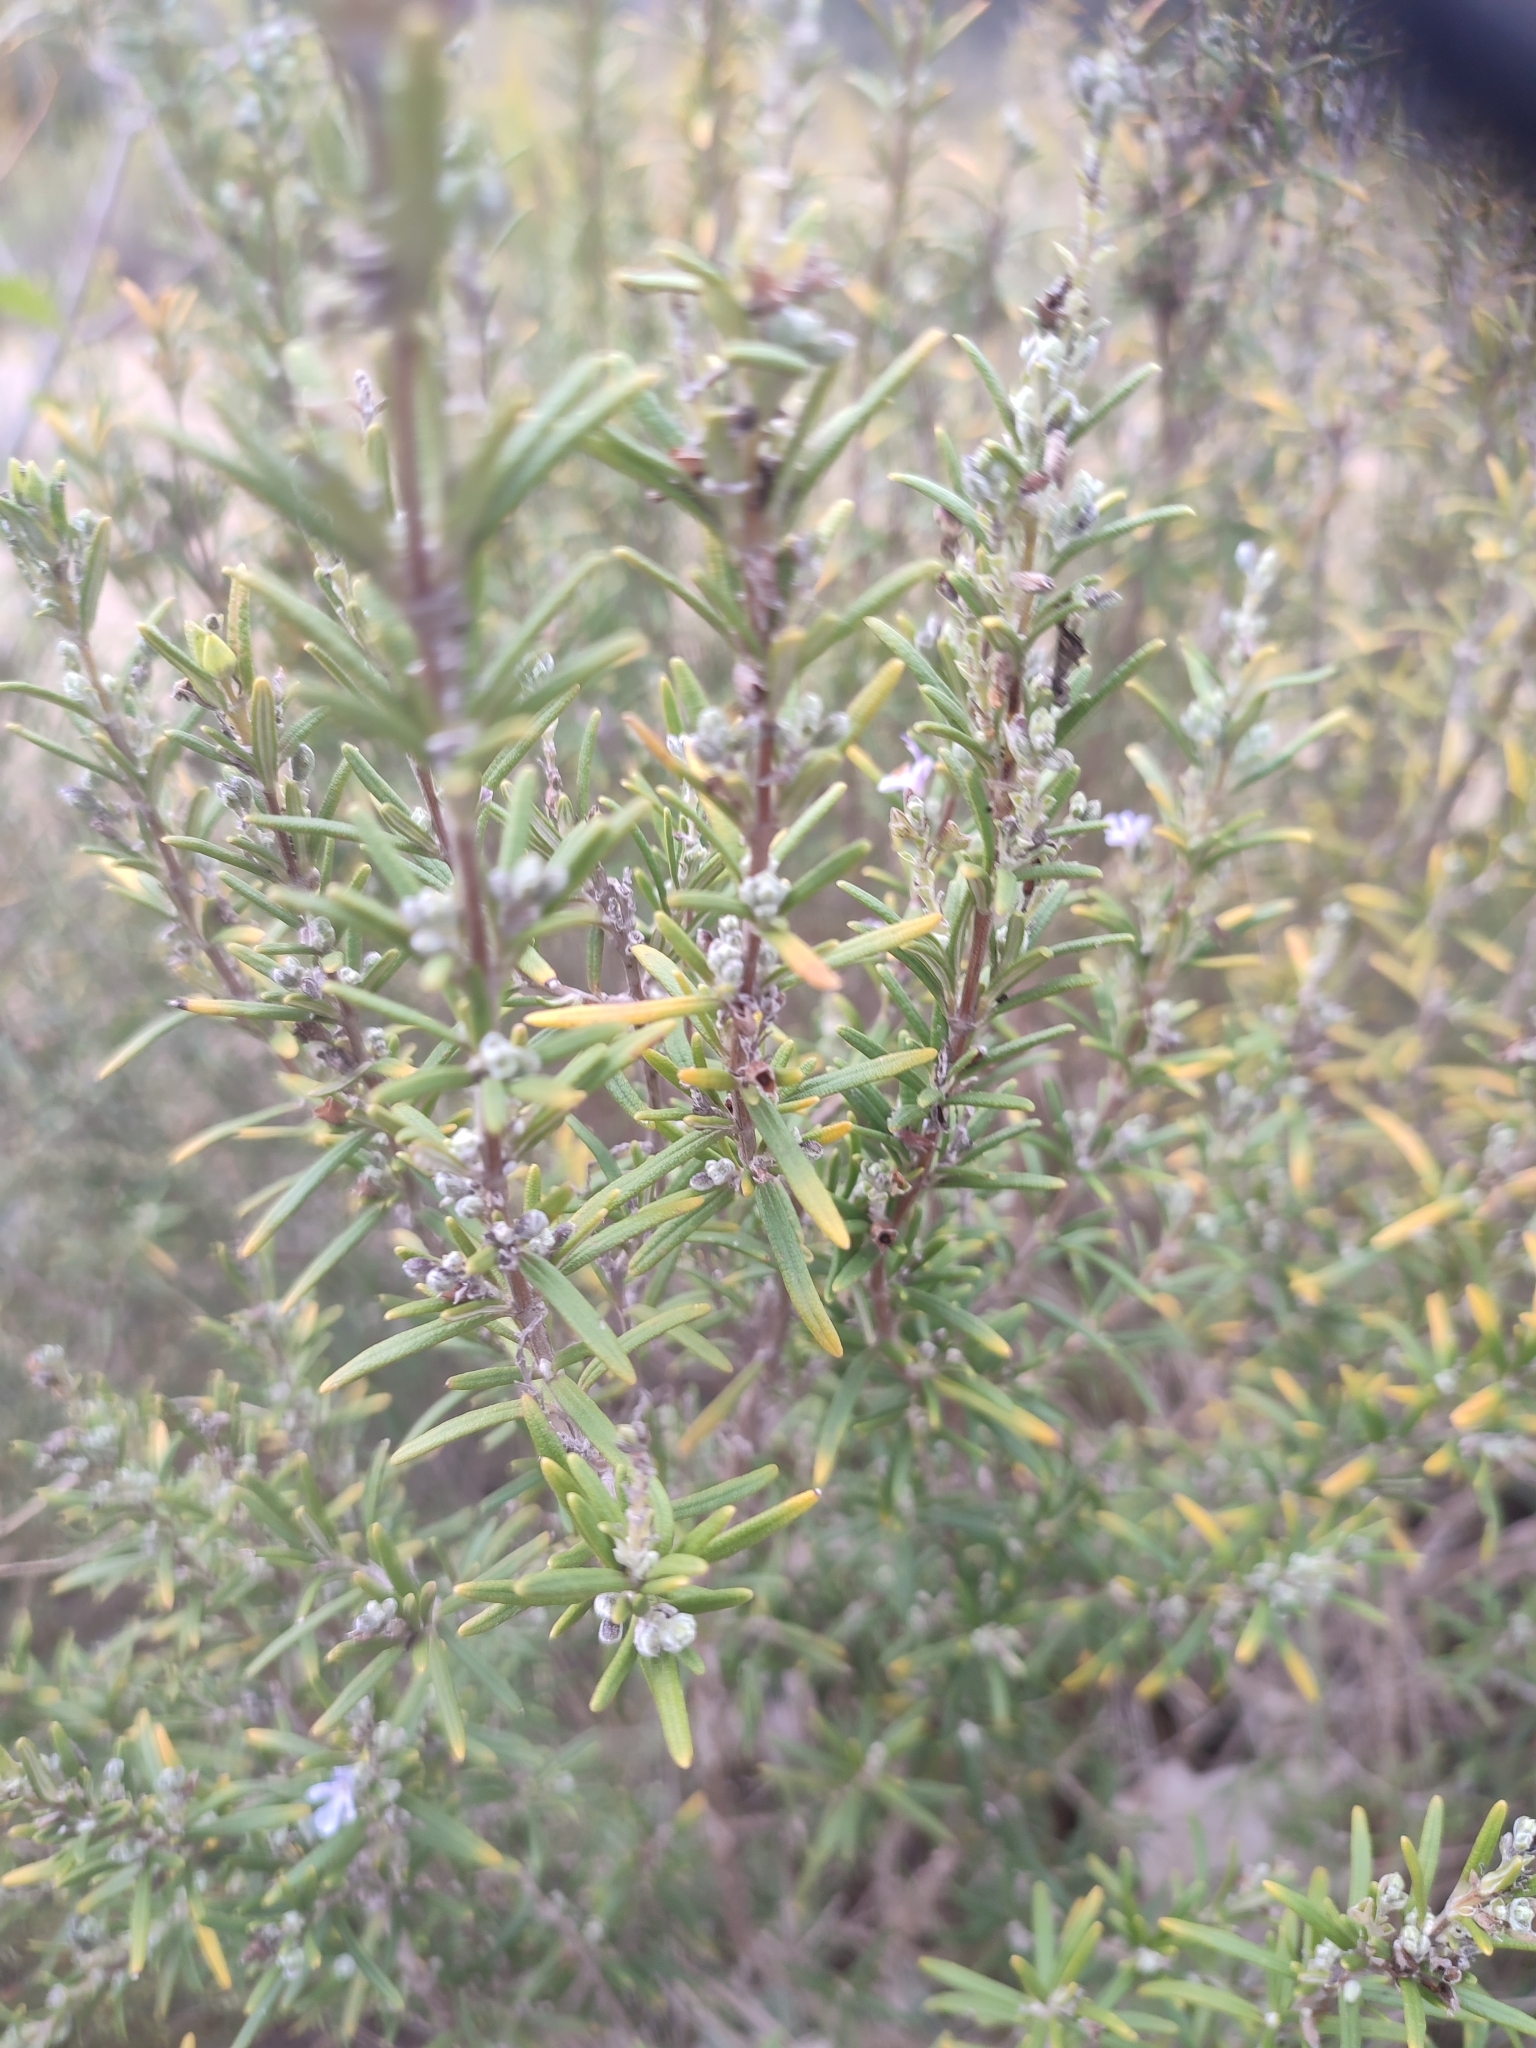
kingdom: Plantae
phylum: Tracheophyta
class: Magnoliopsida
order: Lamiales
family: Lamiaceae
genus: Salvia
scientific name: Salvia rosmarinus
